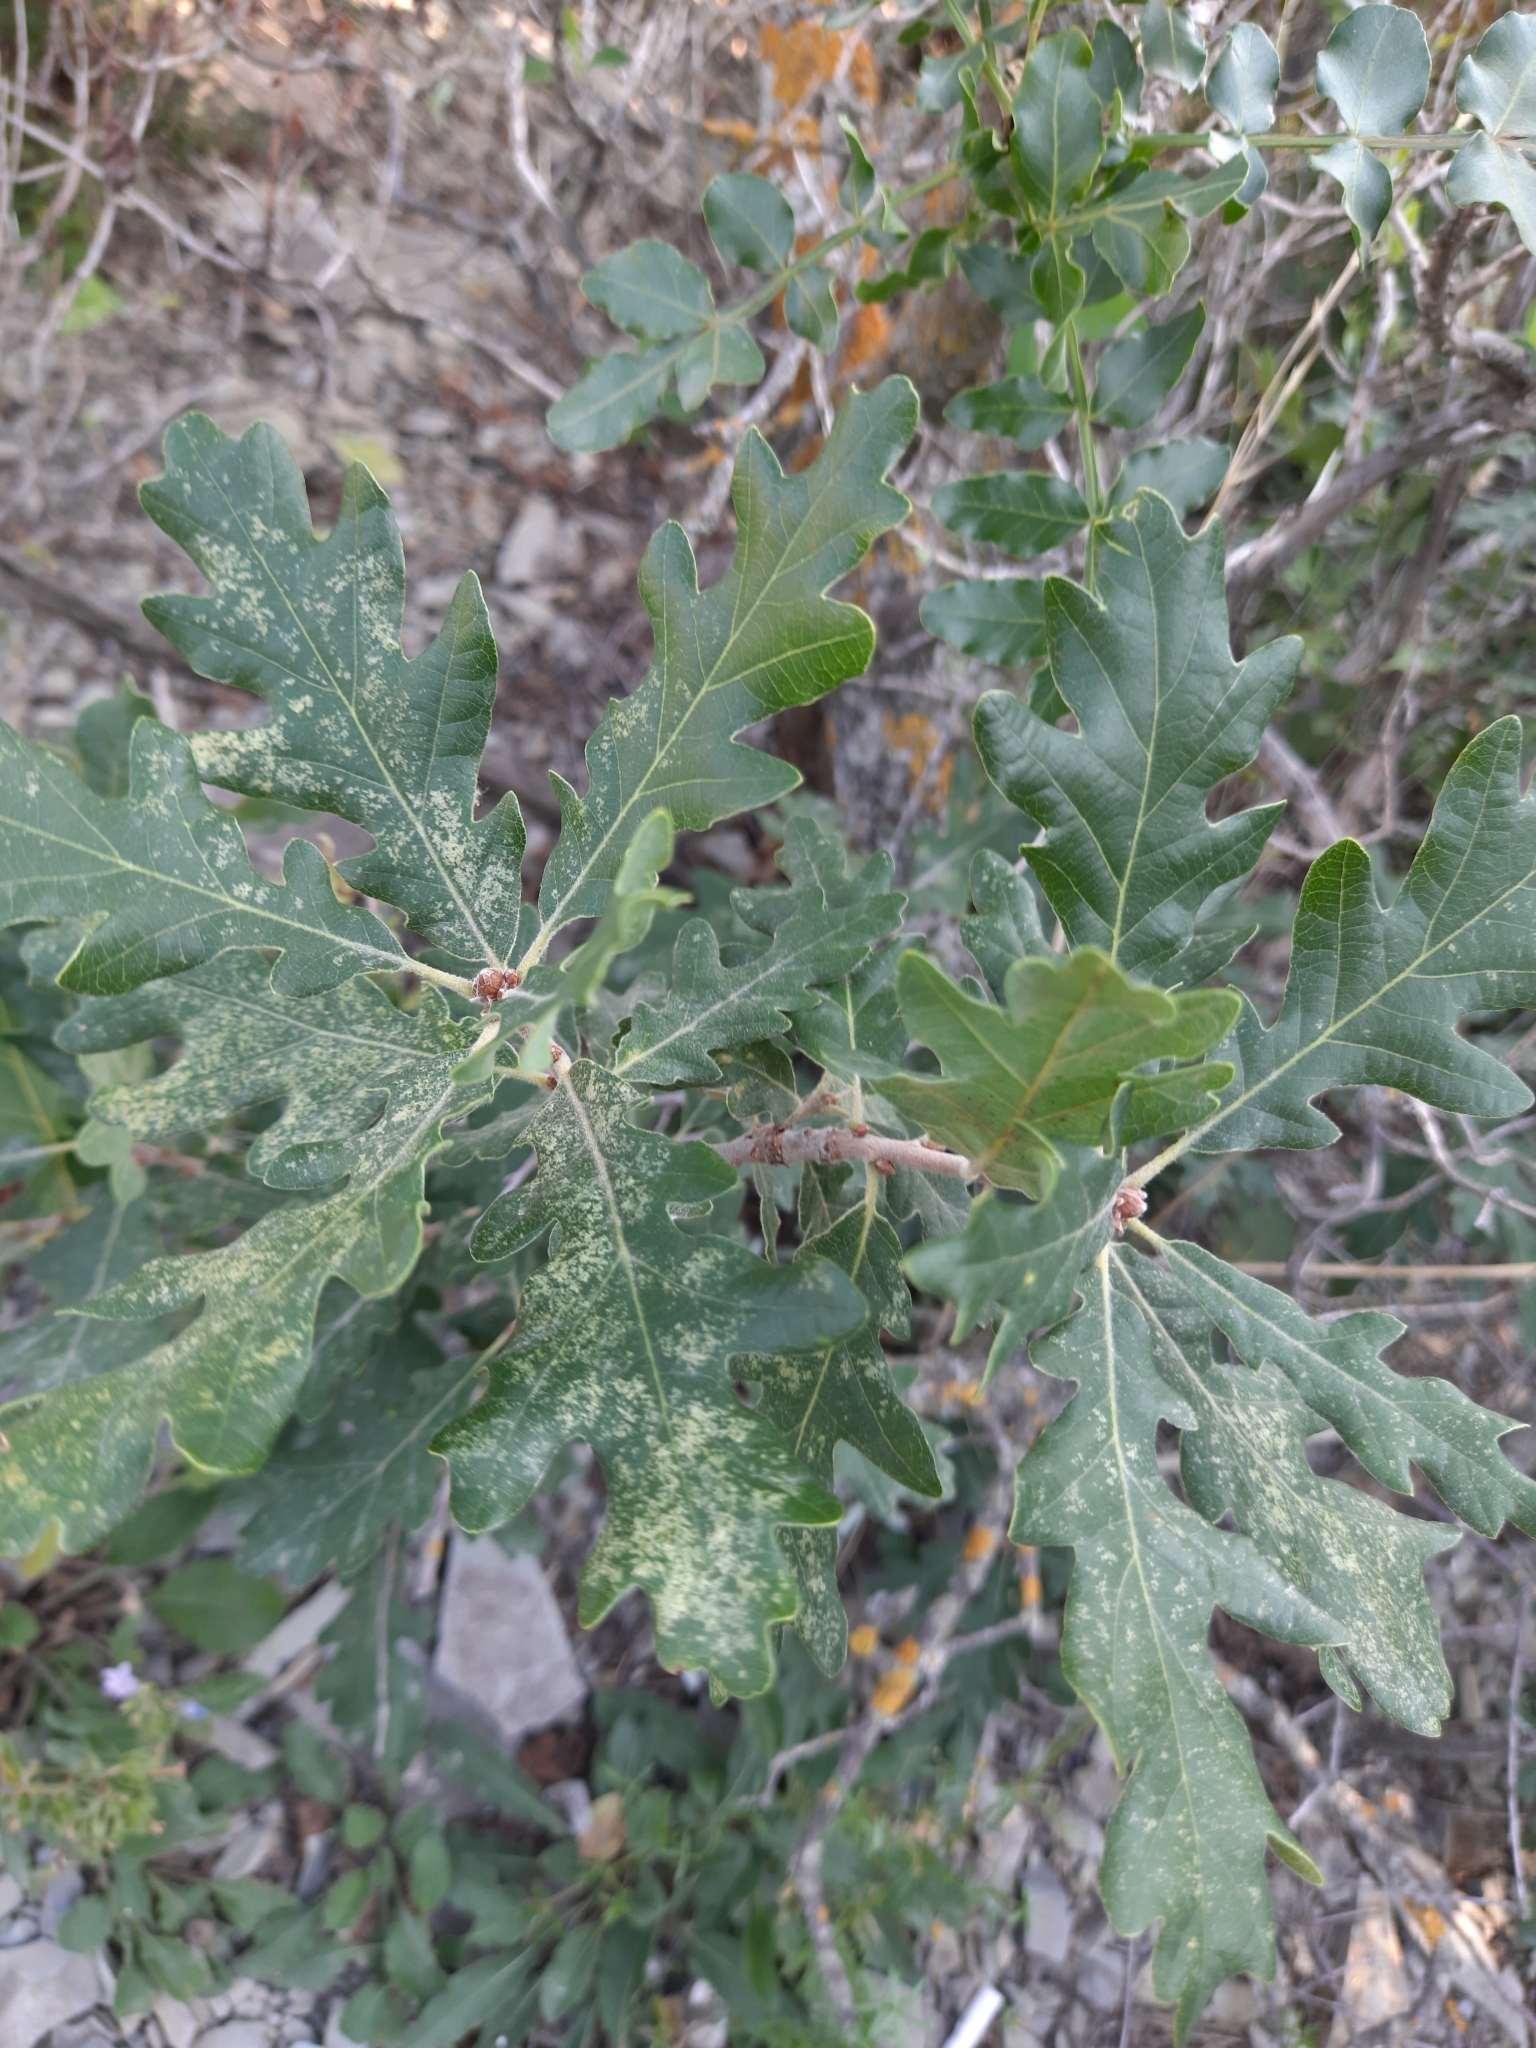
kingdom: Plantae
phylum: Tracheophyta
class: Magnoliopsida
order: Fagales
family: Fagaceae
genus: Quercus
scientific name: Quercus pubescens
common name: Downy oak
